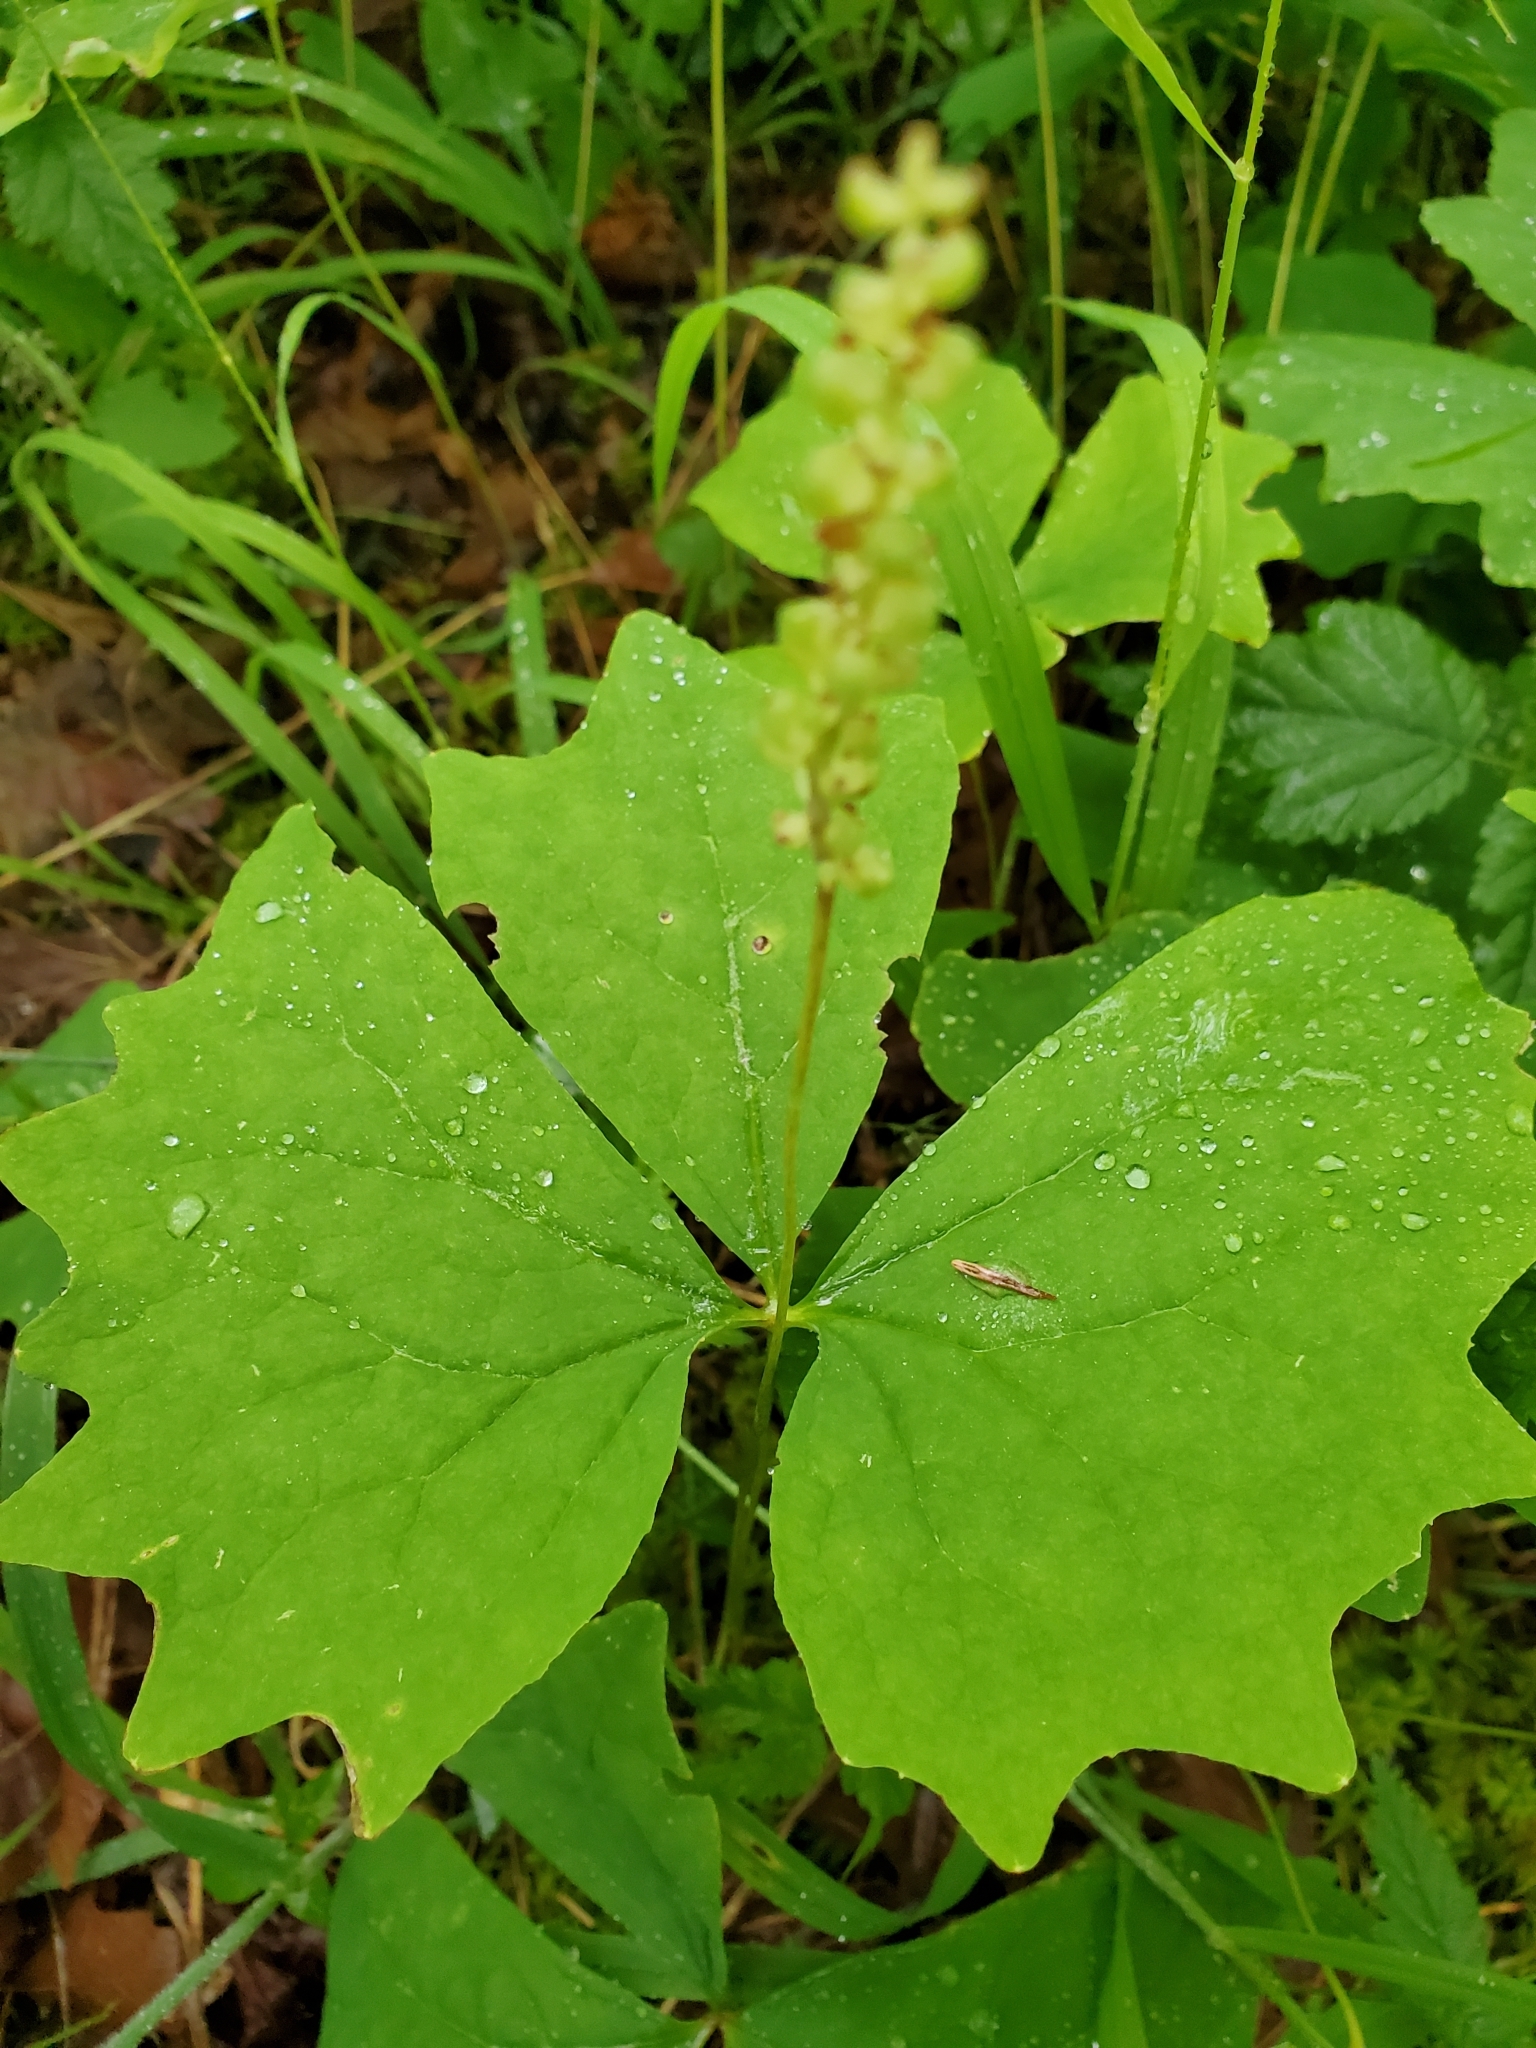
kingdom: Plantae
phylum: Tracheophyta
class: Magnoliopsida
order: Ranunculales
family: Berberidaceae
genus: Achlys
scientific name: Achlys triphylla
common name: Vanilla-leaf
